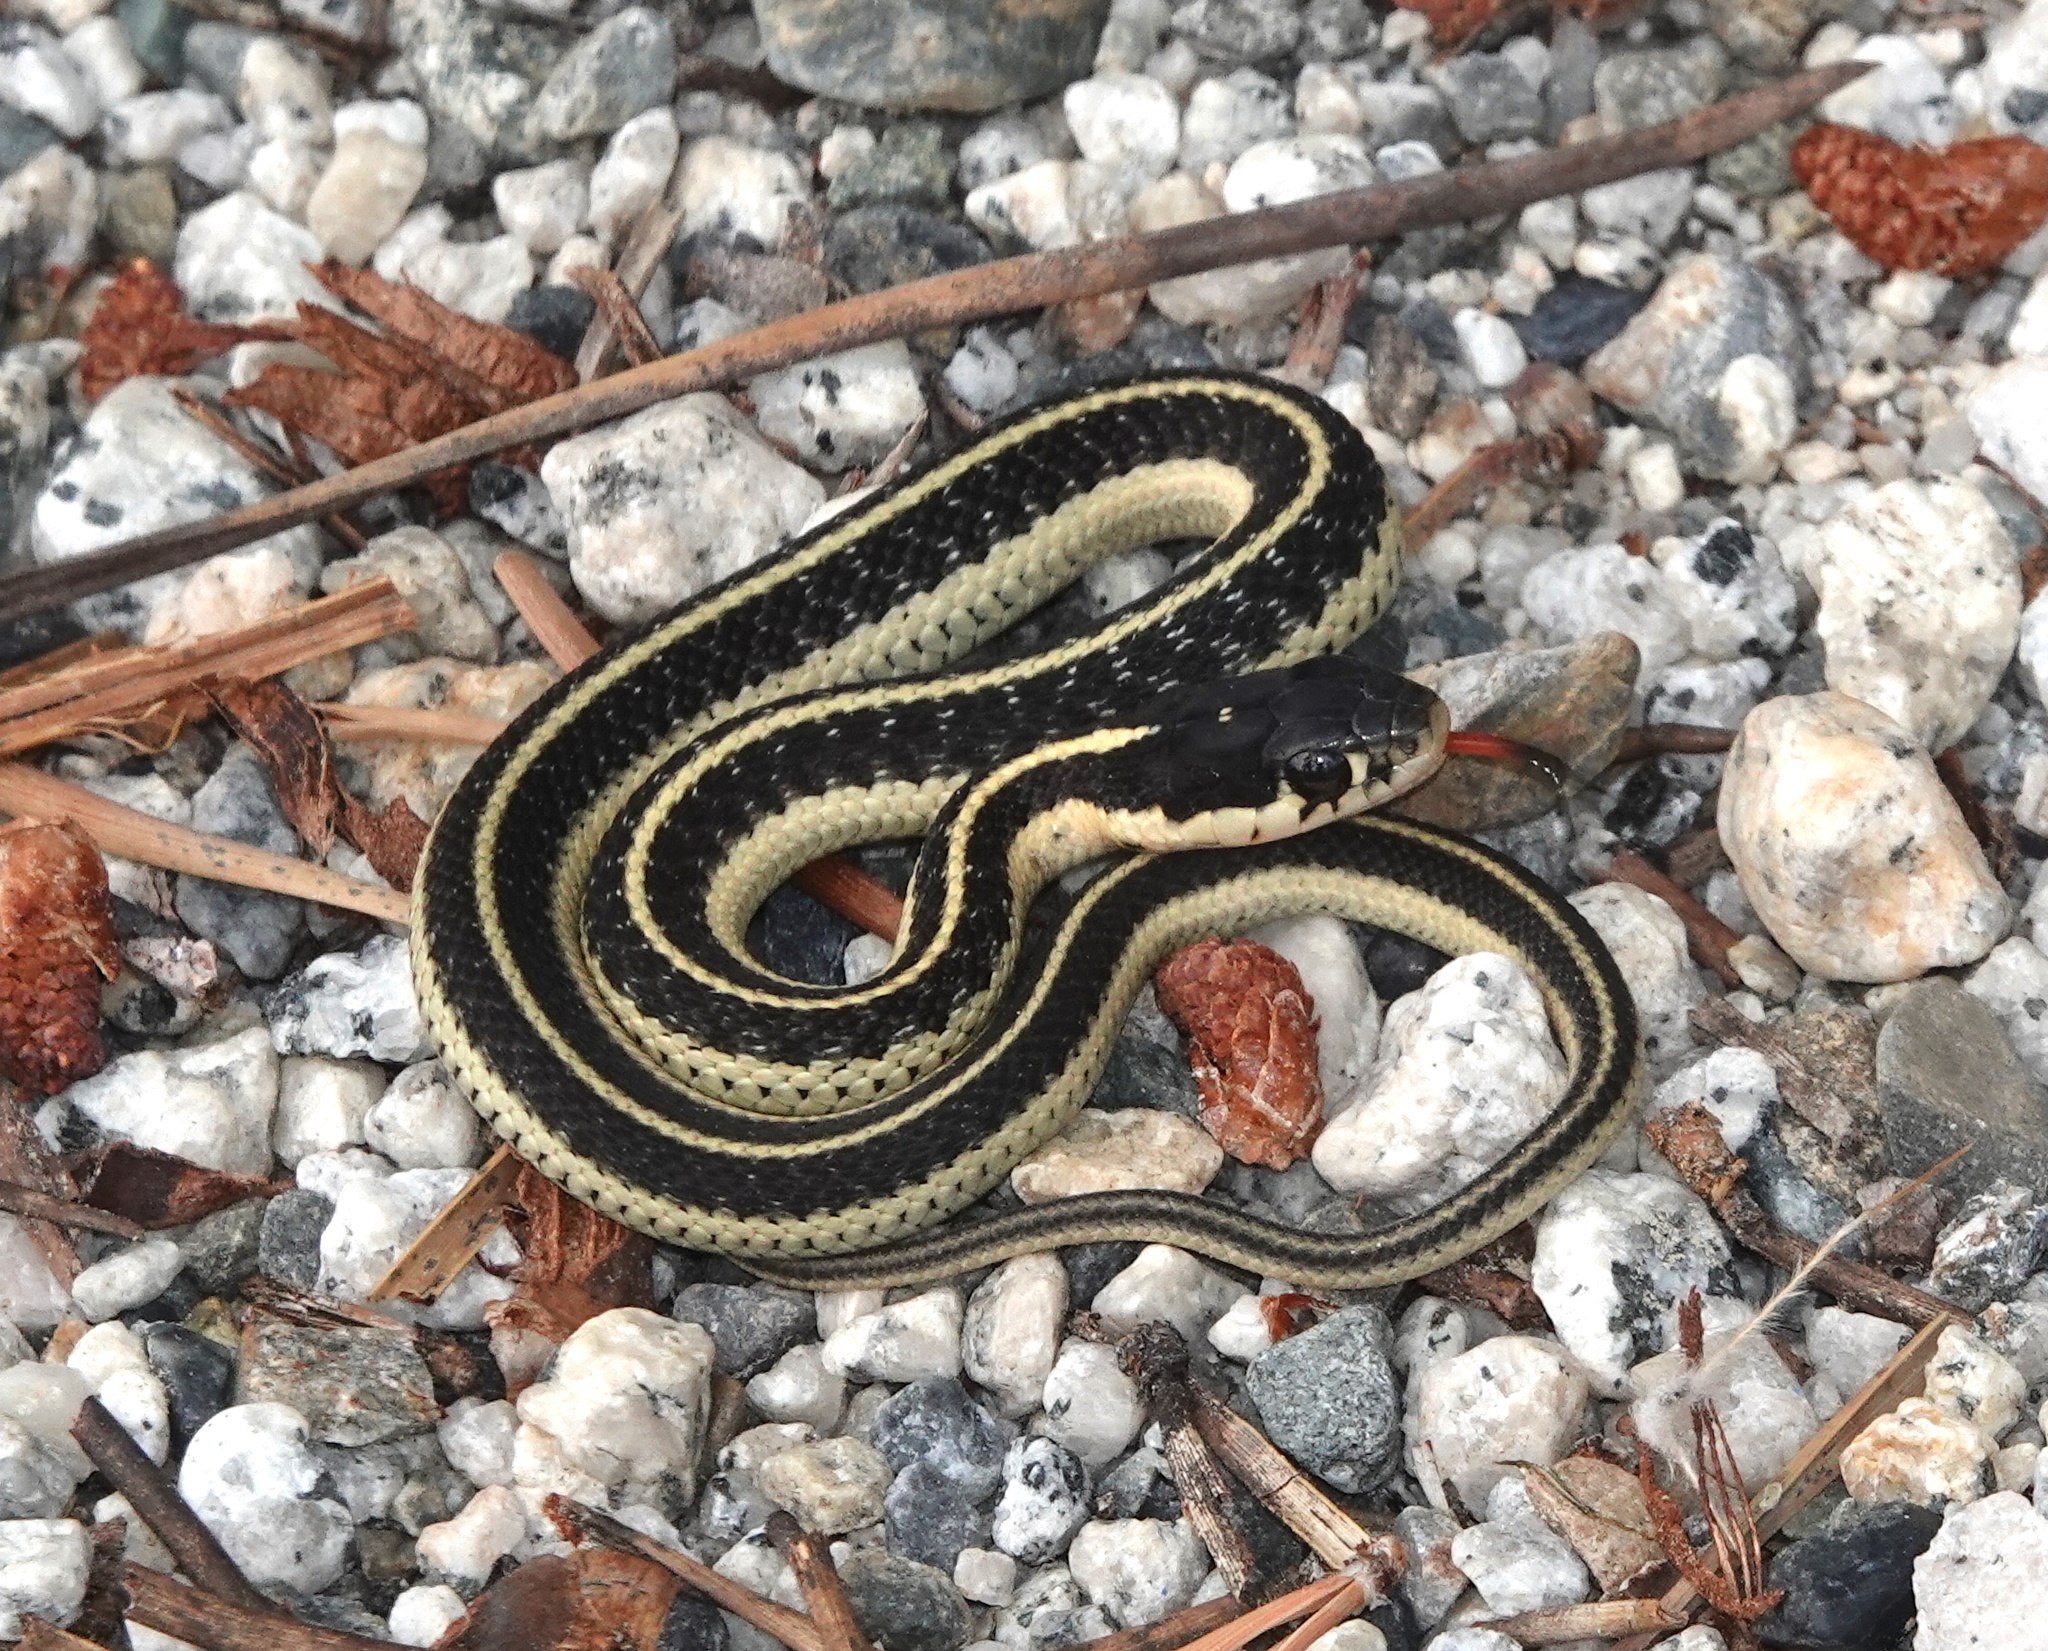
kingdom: Animalia
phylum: Chordata
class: Squamata
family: Colubridae
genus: Thamnophis
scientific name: Thamnophis elegans
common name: Western terrestrial garter snake
